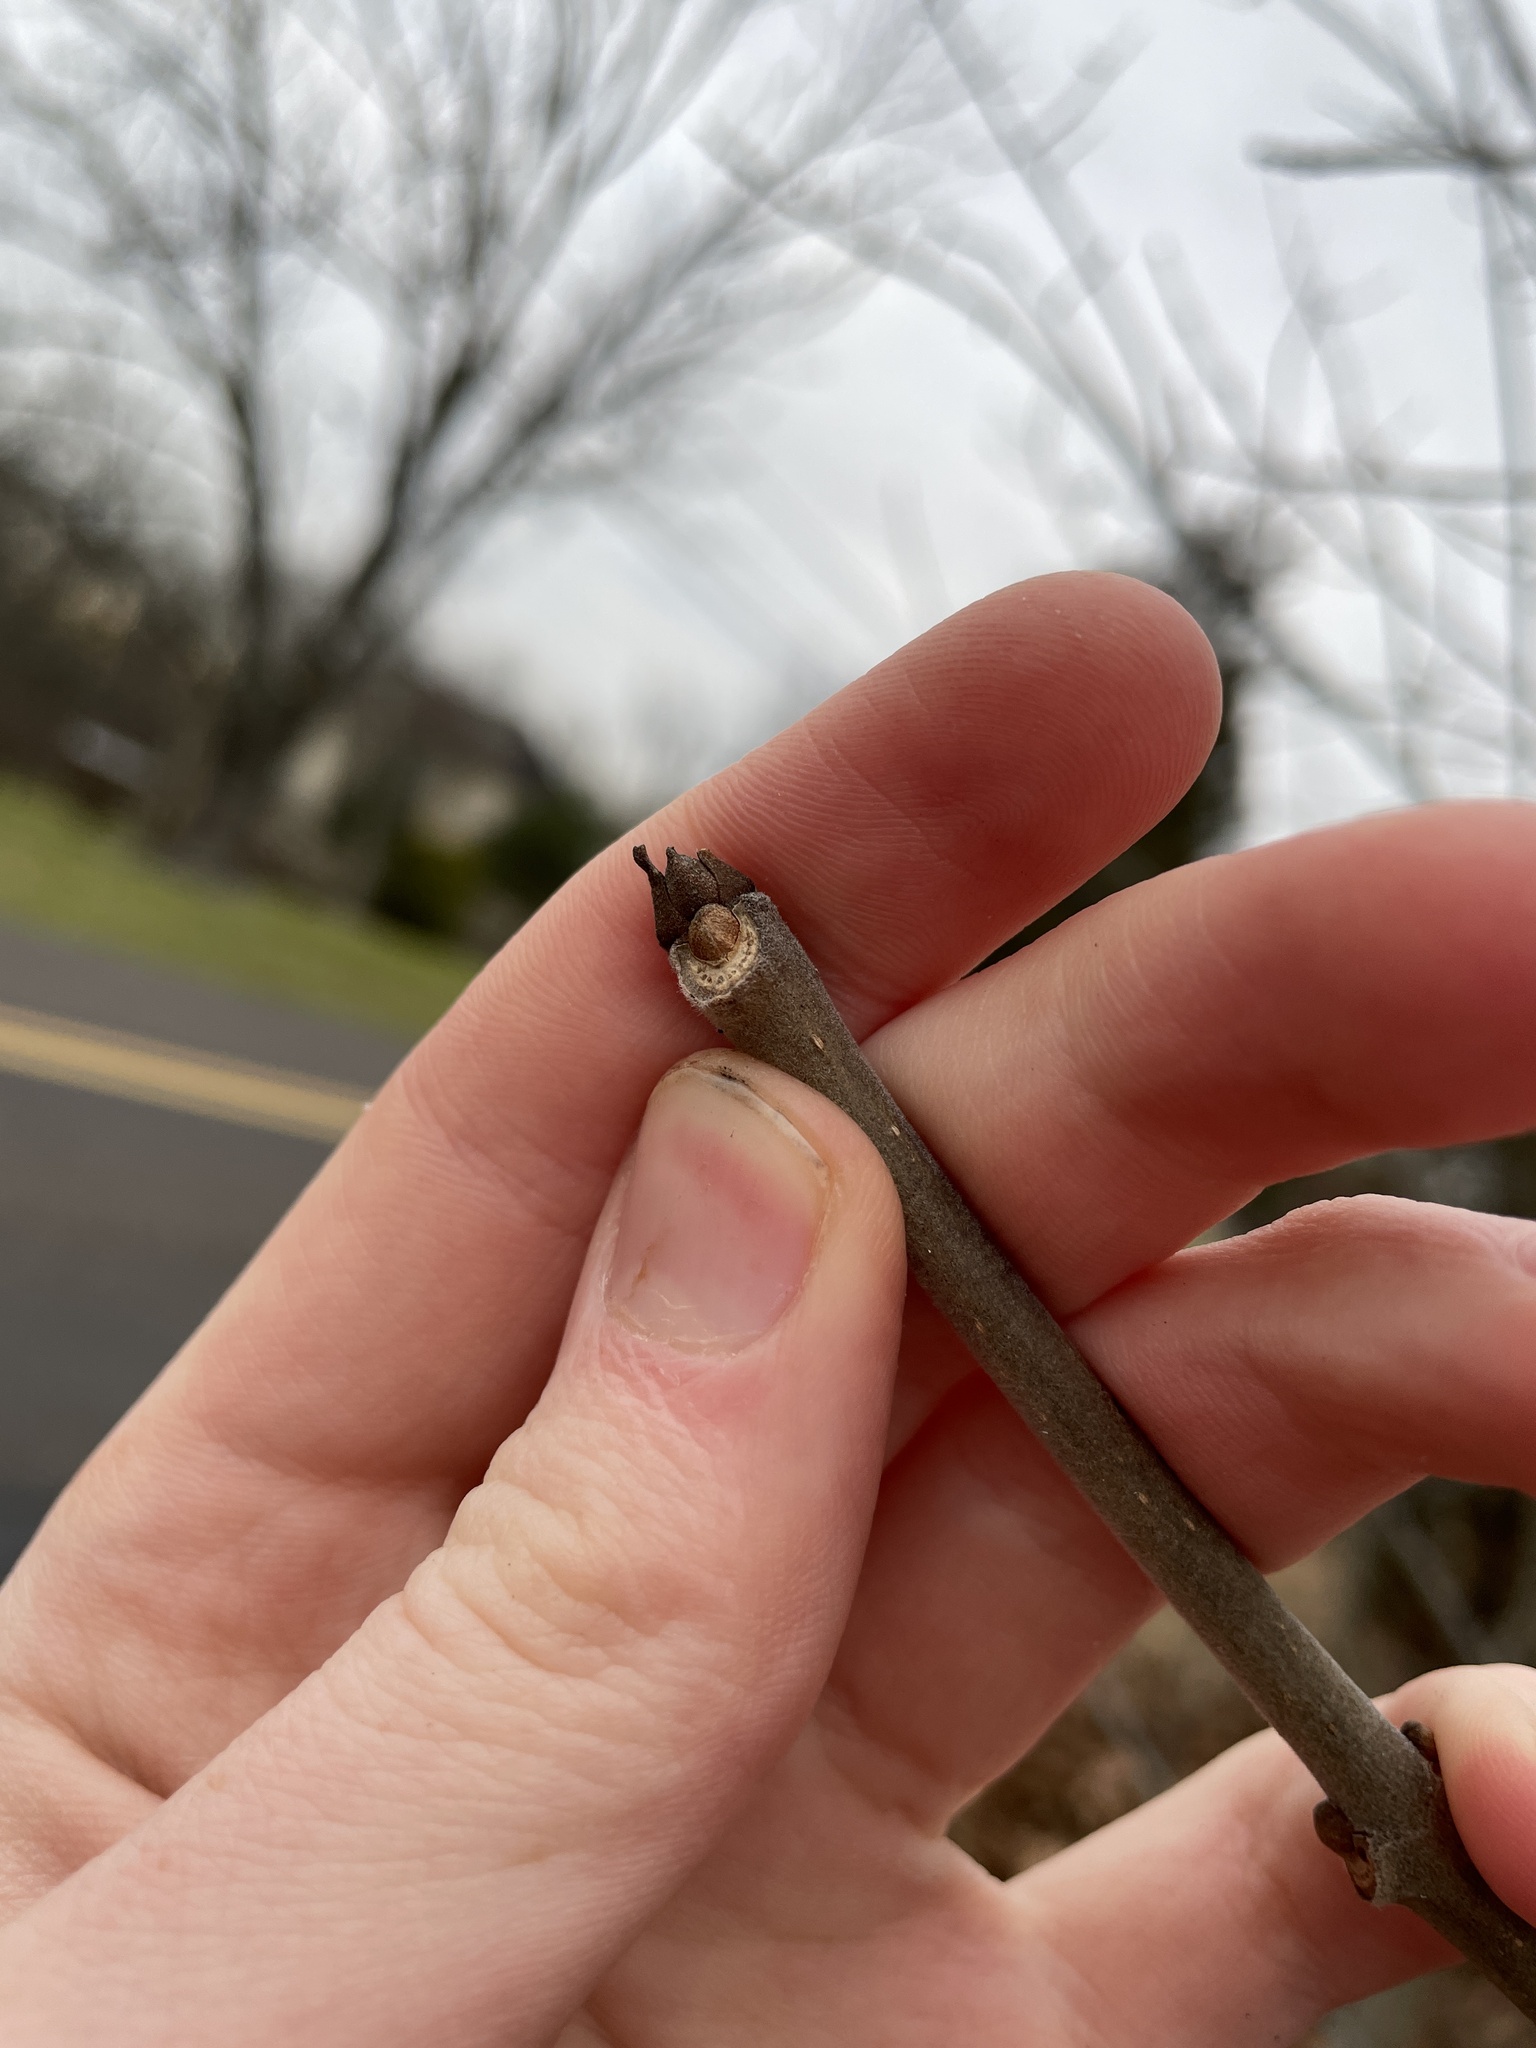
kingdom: Plantae
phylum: Tracheophyta
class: Magnoliopsida
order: Lamiales
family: Oleaceae
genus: Fraxinus
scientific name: Fraxinus americana
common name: White ash
